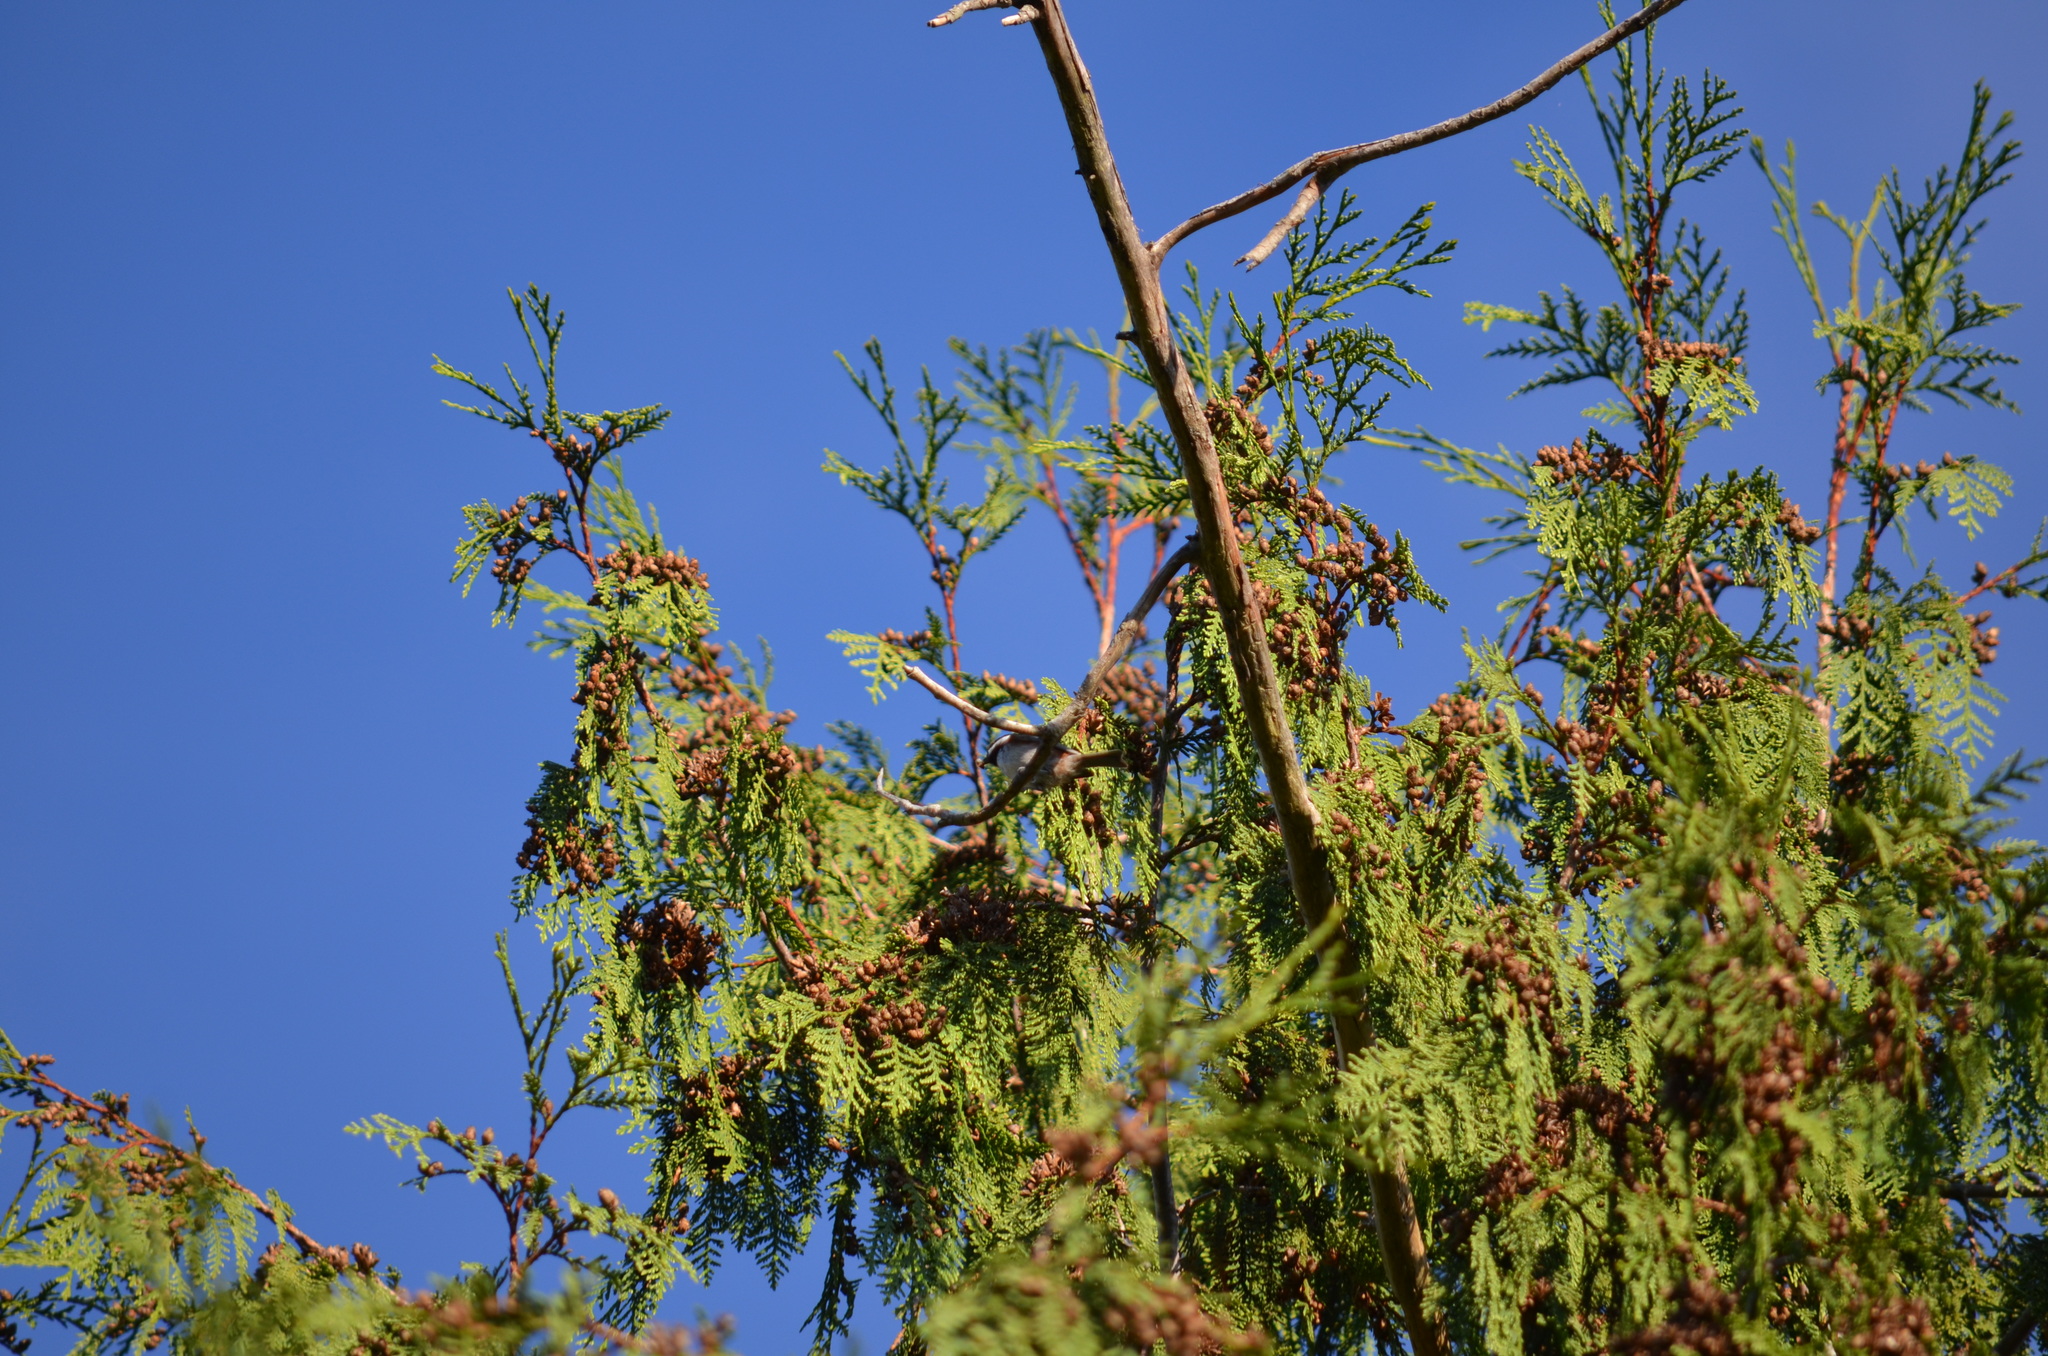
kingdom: Animalia
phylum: Chordata
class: Aves
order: Passeriformes
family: Paridae
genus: Poecile
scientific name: Poecile rufescens
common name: Chestnut-backed chickadee
